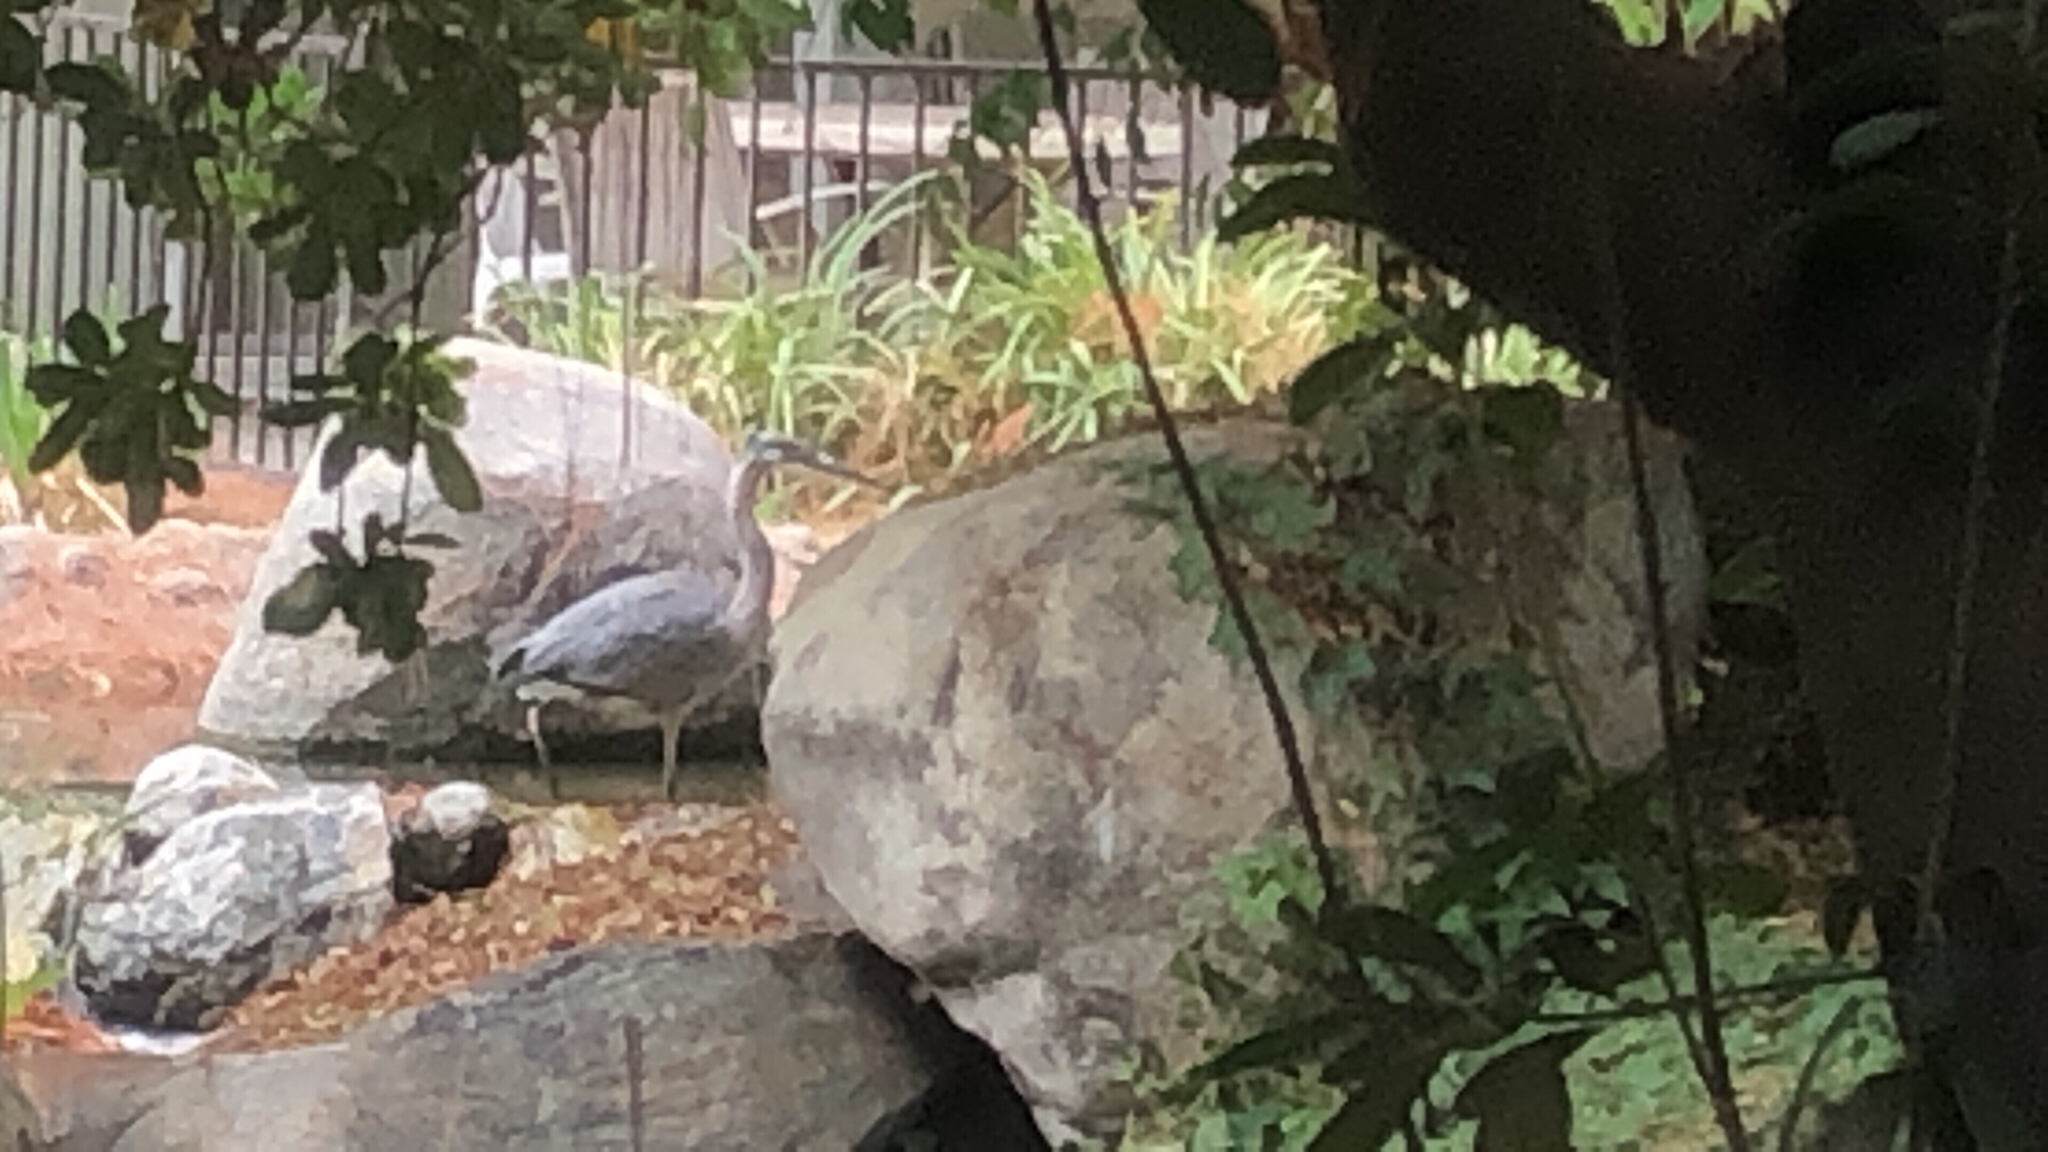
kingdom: Animalia
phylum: Chordata
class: Aves
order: Pelecaniformes
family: Ardeidae
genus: Ardea
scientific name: Ardea herodias
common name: Great blue heron
